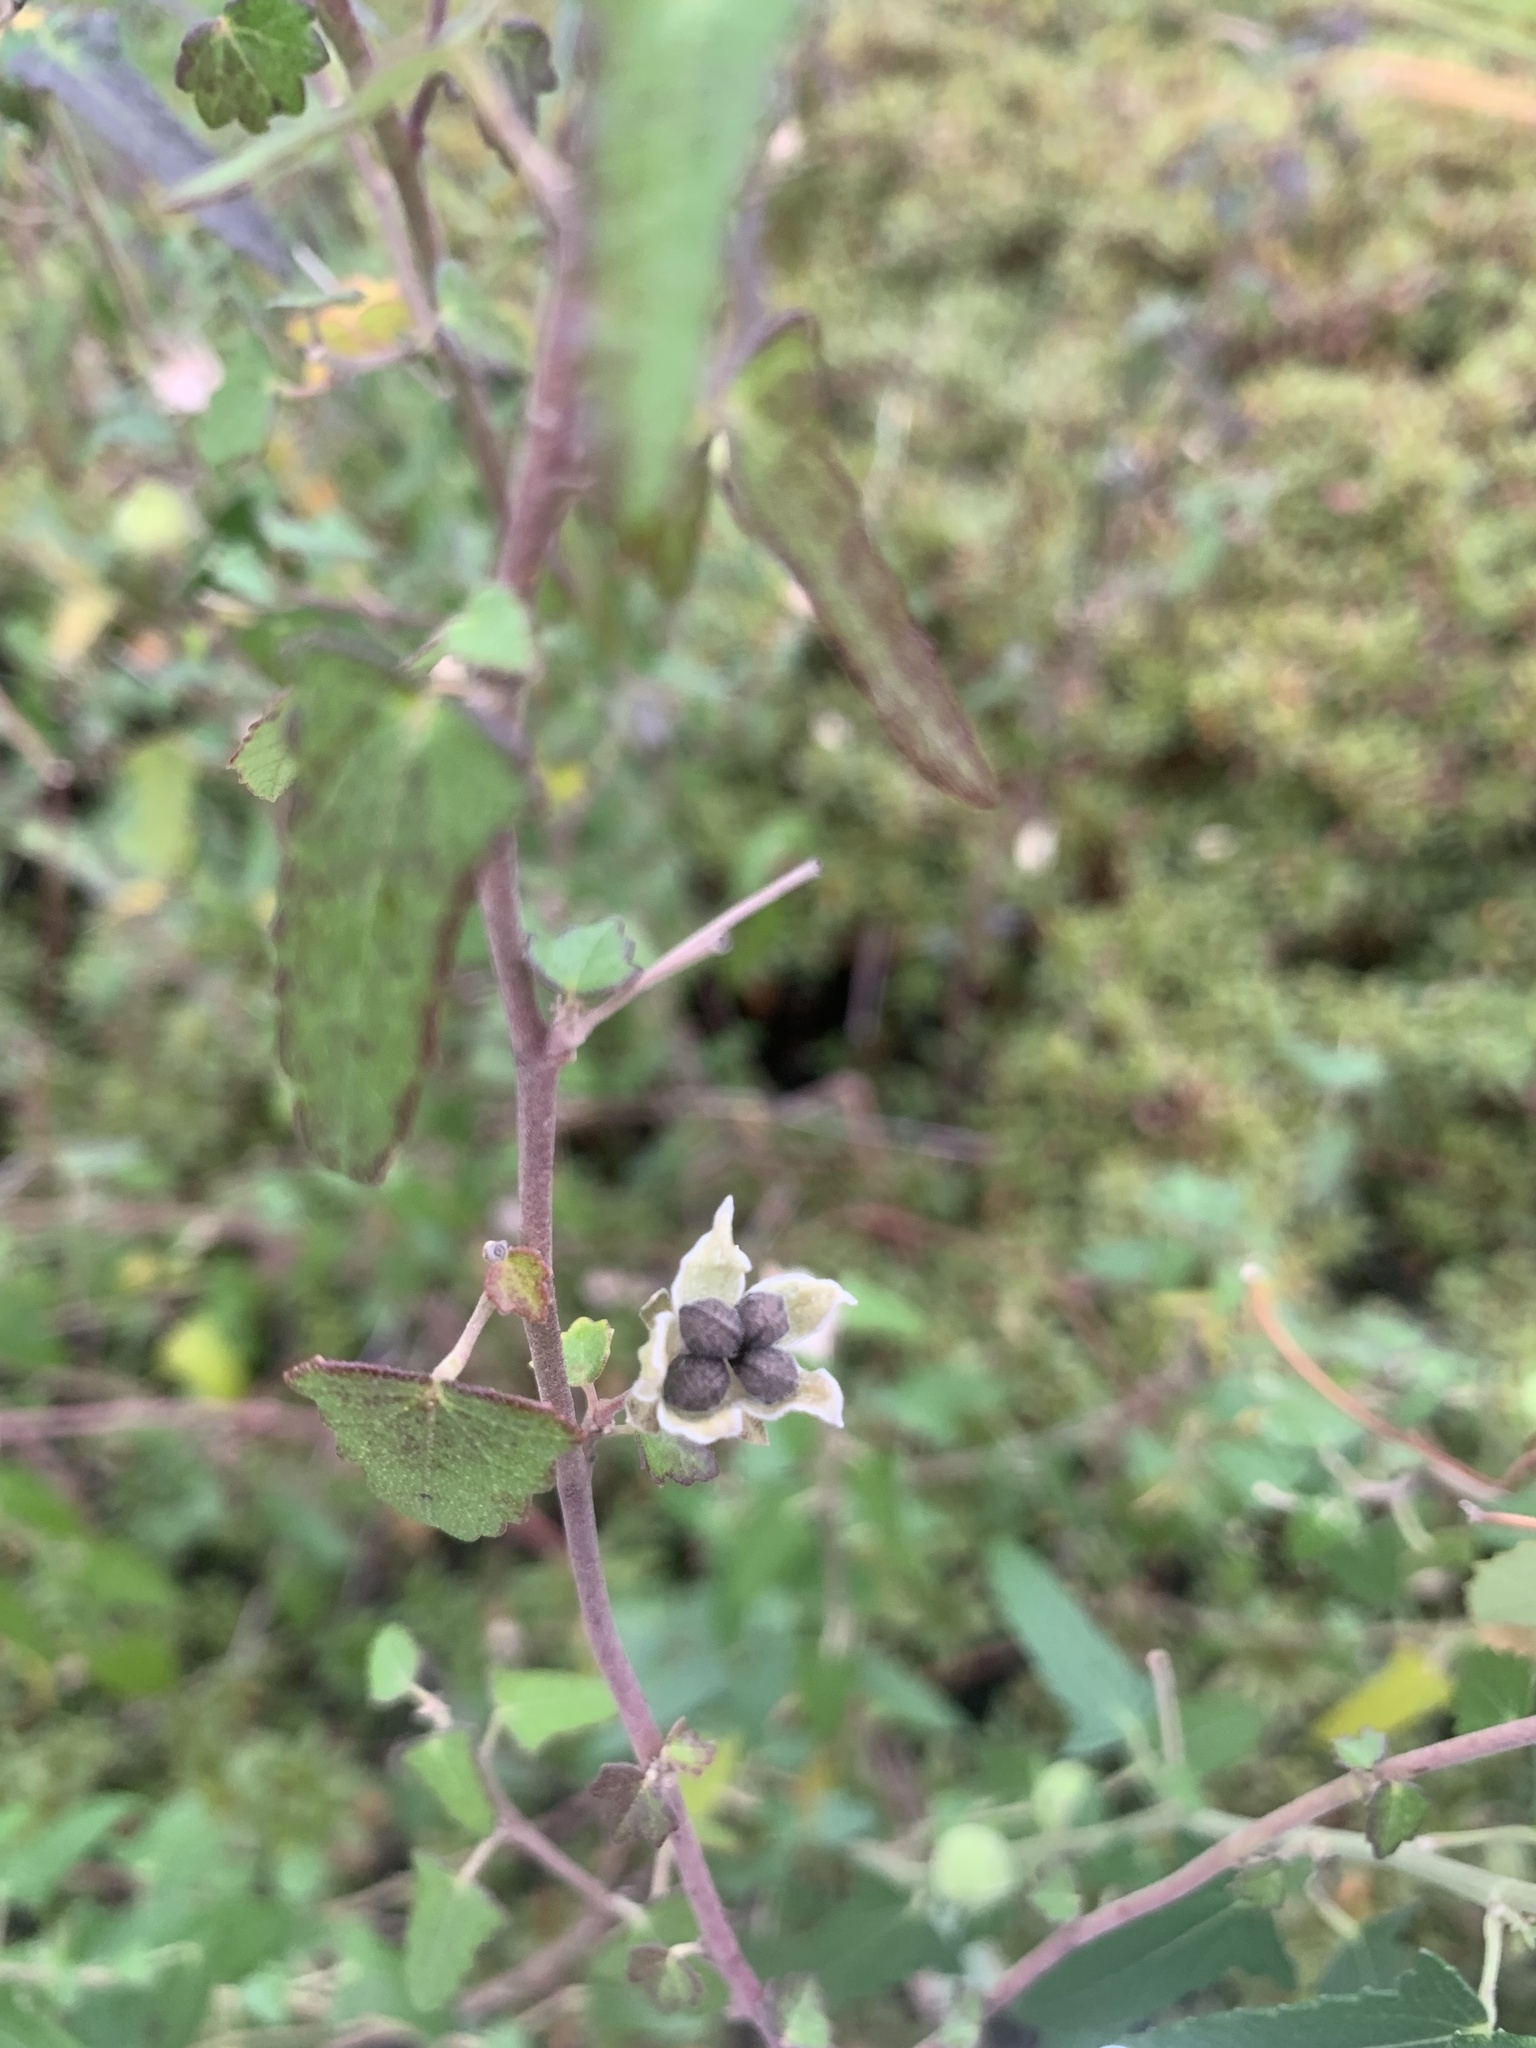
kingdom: Plantae
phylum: Tracheophyta
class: Magnoliopsida
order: Malvales
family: Malvaceae
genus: Pavonia
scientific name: Pavonia hastata
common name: Spearleaf swampmallow
